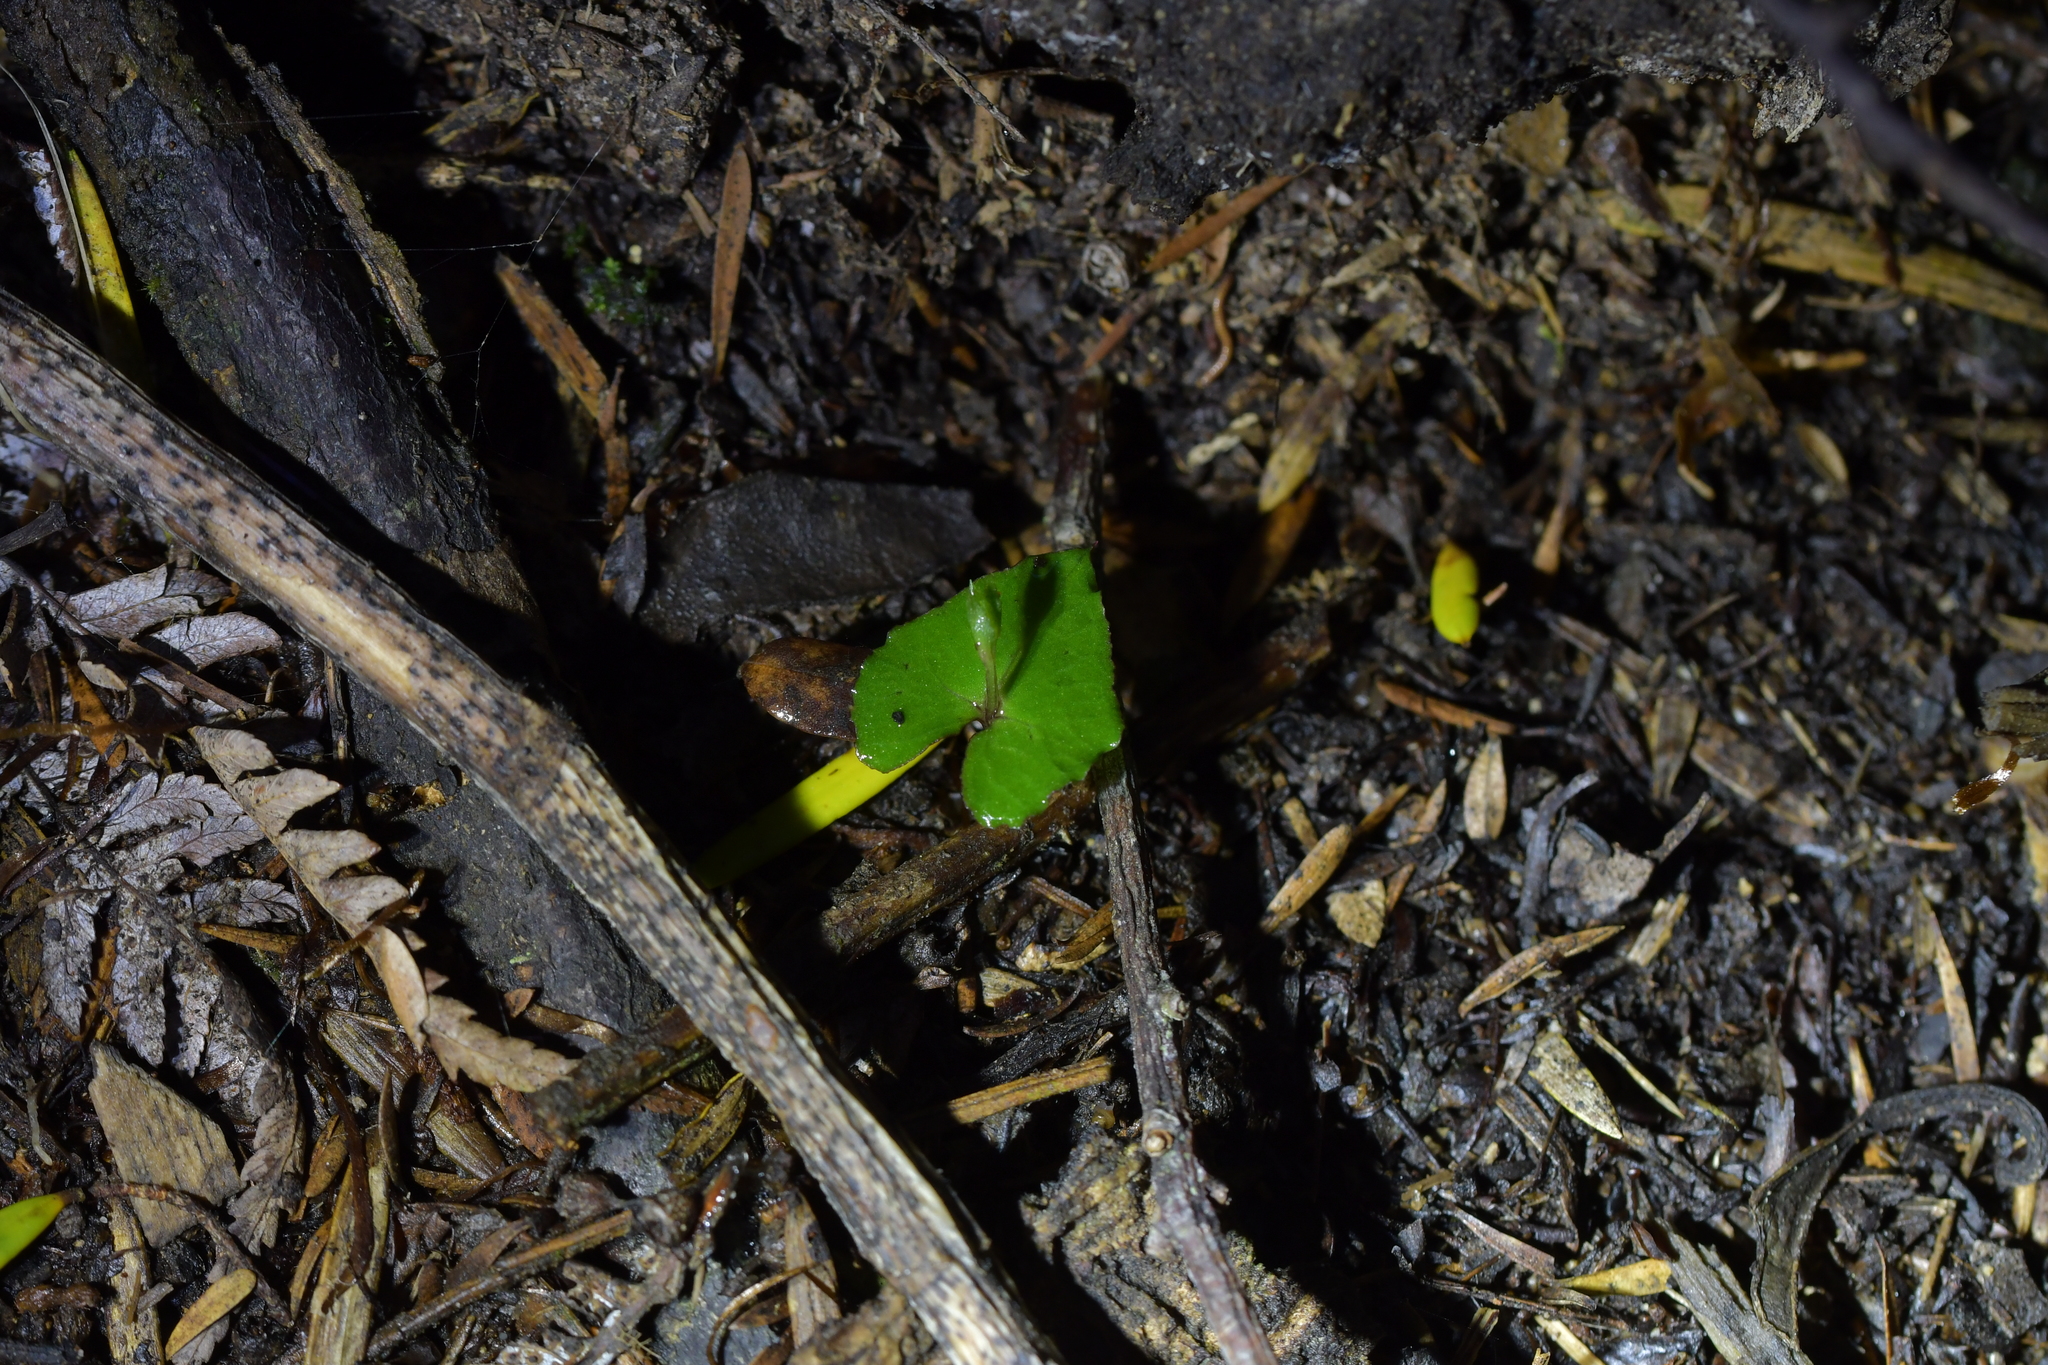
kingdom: Plantae
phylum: Tracheophyta
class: Liliopsida
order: Asparagales
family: Orchidaceae
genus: Acianthus
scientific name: Acianthus sinclairii
